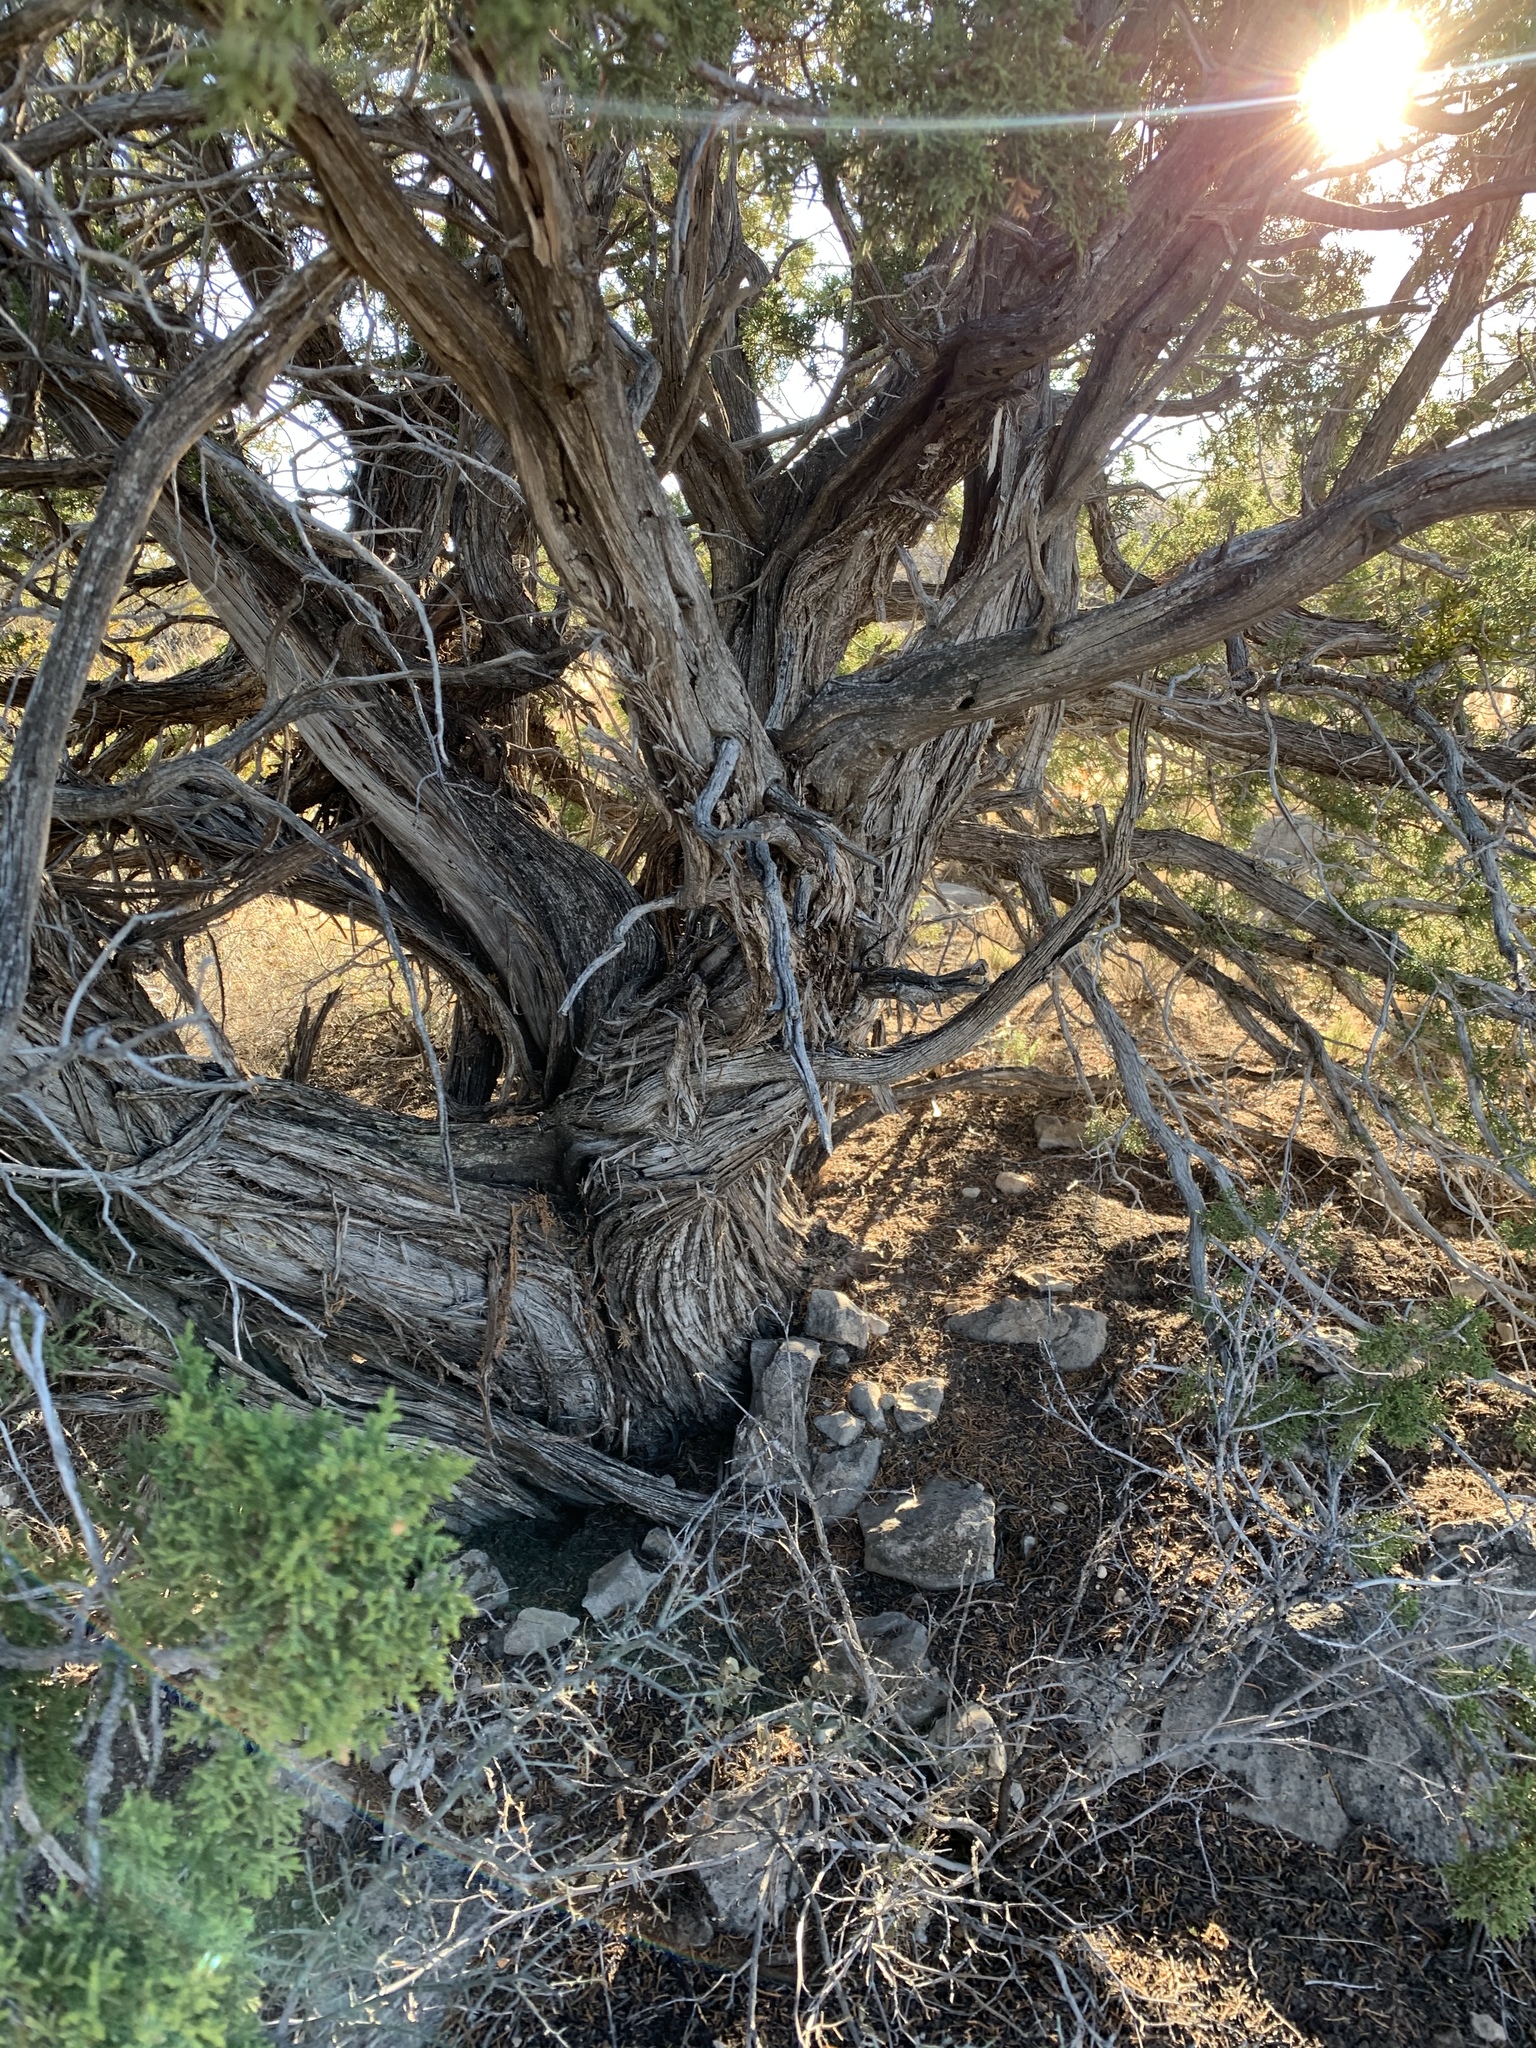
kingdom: Plantae
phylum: Tracheophyta
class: Pinopsida
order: Pinales
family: Cupressaceae
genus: Juniperus
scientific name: Juniperus monosperma
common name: One-seed juniper
